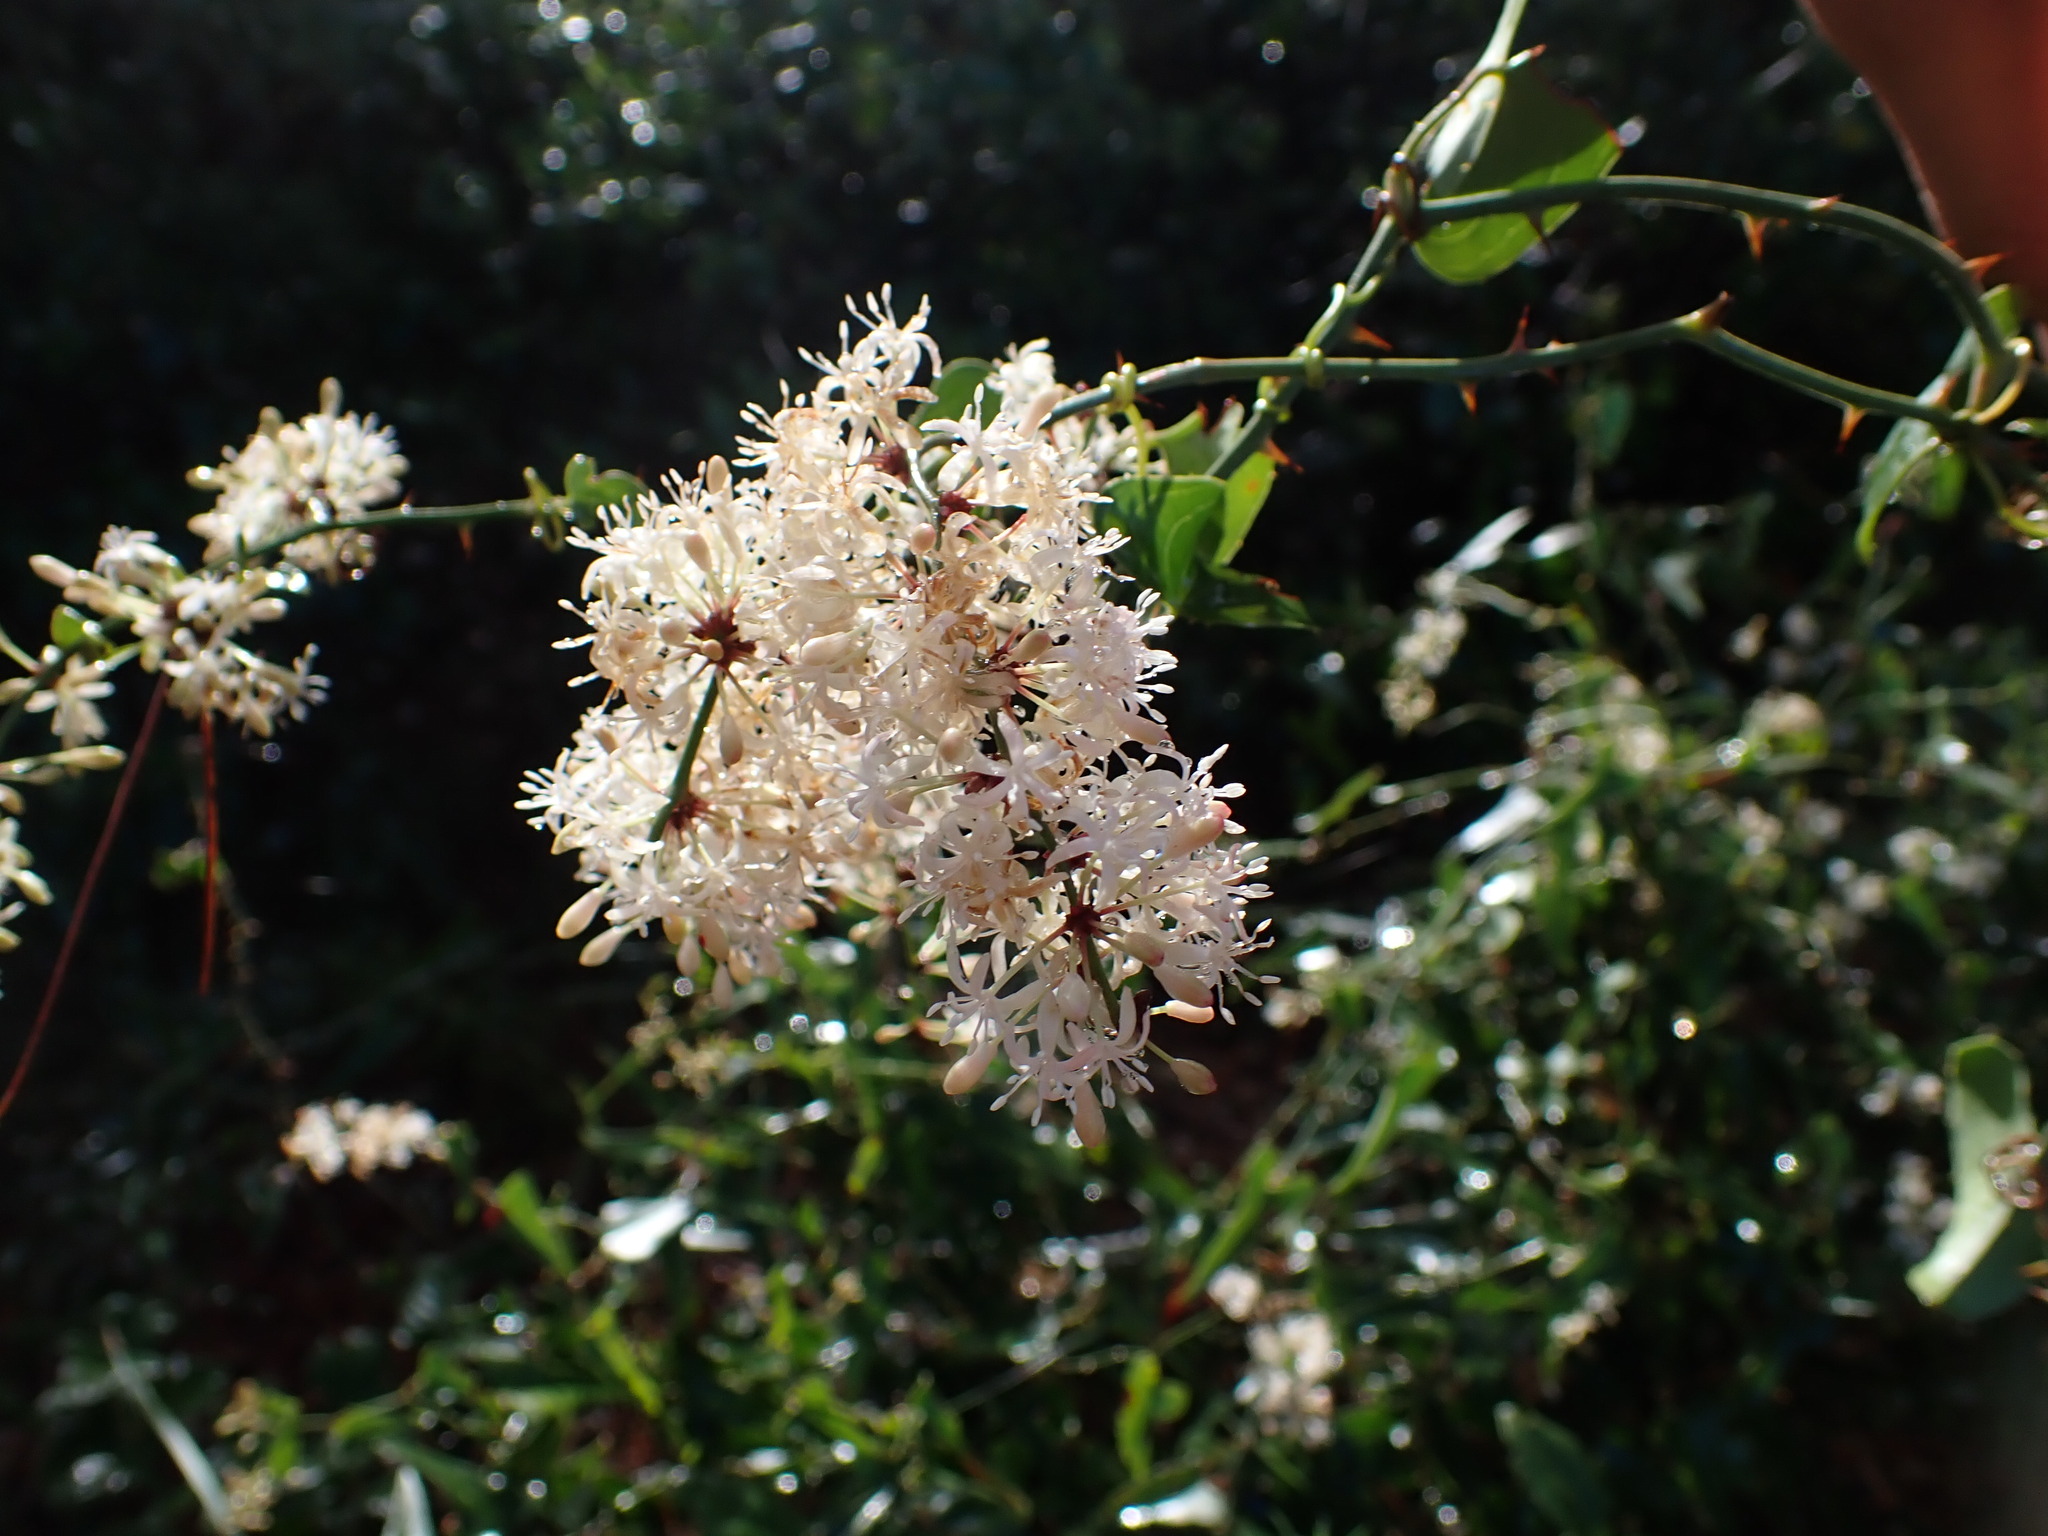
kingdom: Plantae
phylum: Tracheophyta
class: Liliopsida
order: Liliales
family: Smilacaceae
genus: Smilax
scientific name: Smilax aspera
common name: Common smilax
